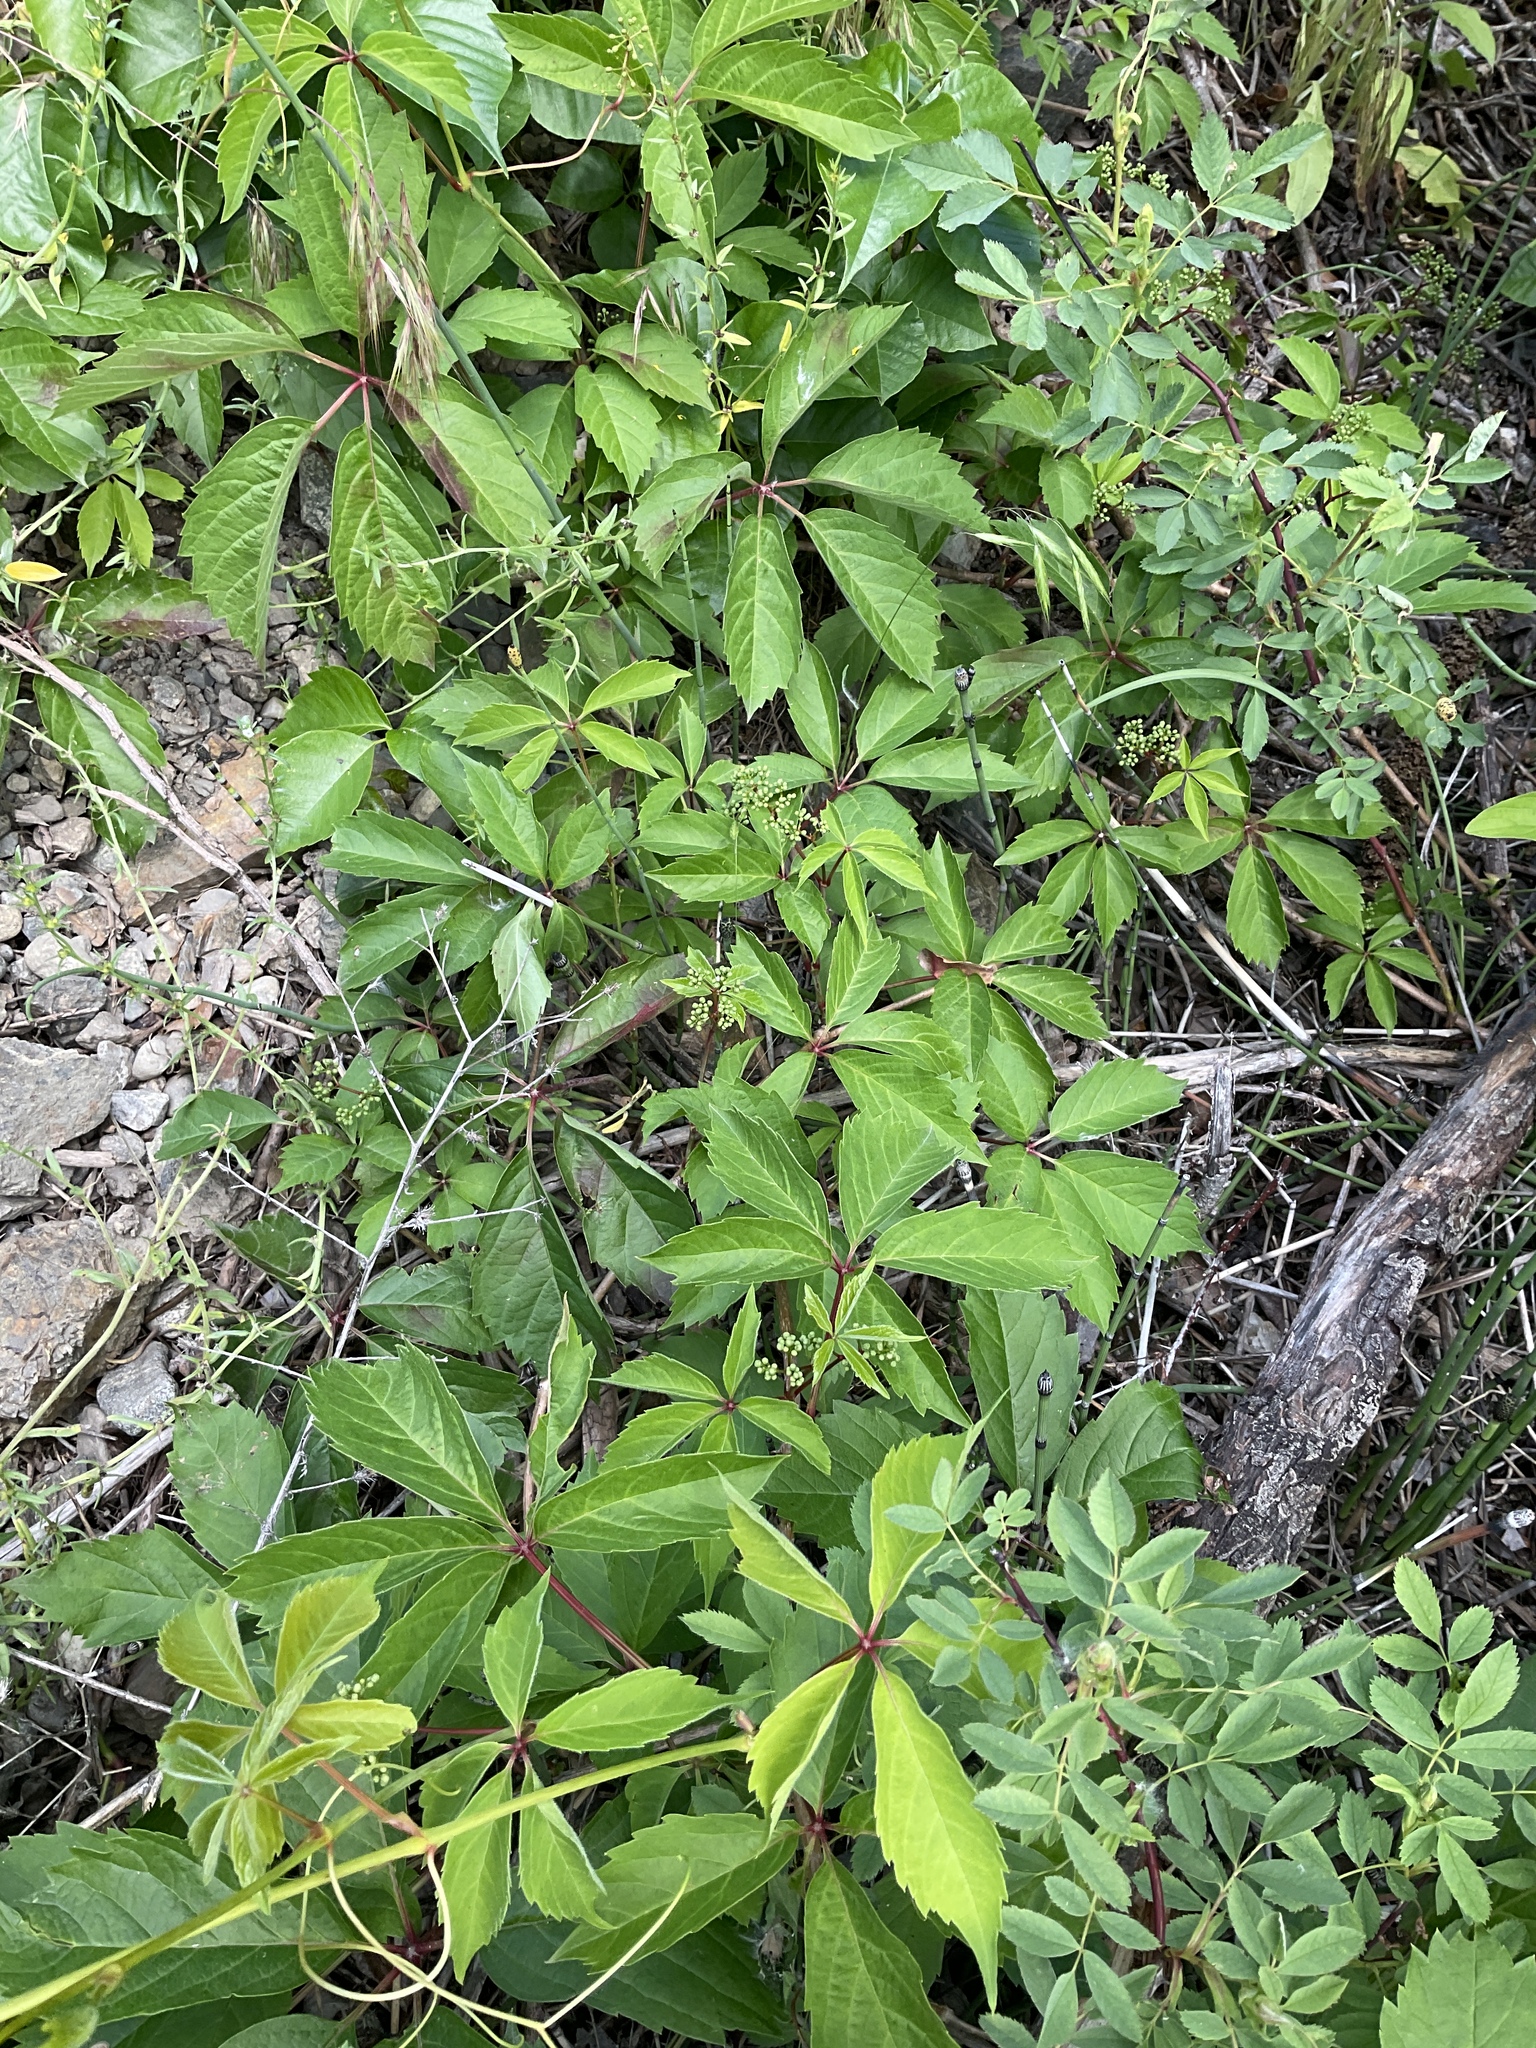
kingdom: Plantae
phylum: Tracheophyta
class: Magnoliopsida
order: Vitales
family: Vitaceae
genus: Parthenocissus
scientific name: Parthenocissus inserta
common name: False virginia-creeper
